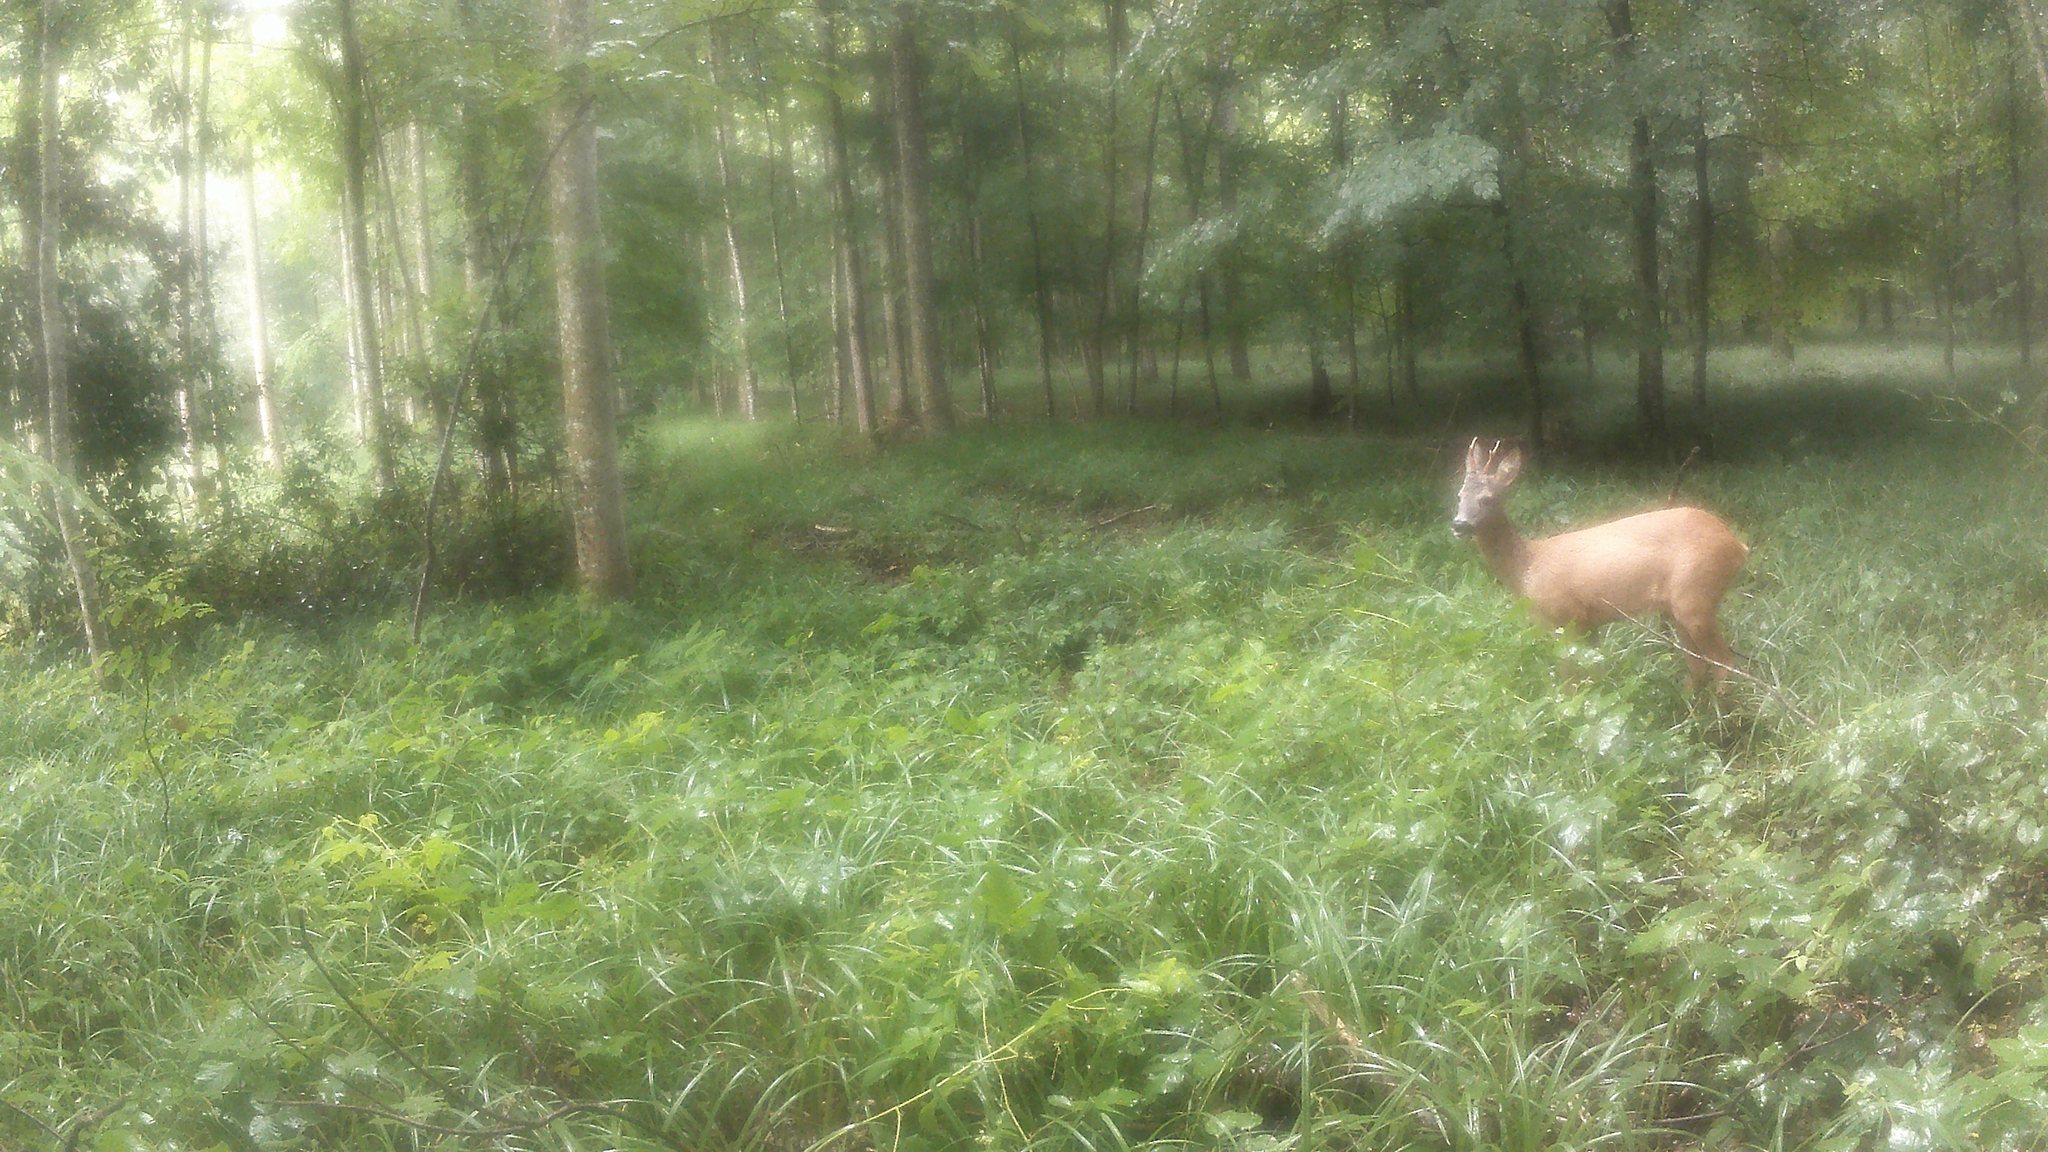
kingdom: Animalia
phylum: Chordata
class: Mammalia
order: Artiodactyla
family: Cervidae
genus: Capreolus
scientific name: Capreolus capreolus
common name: Western roe deer
